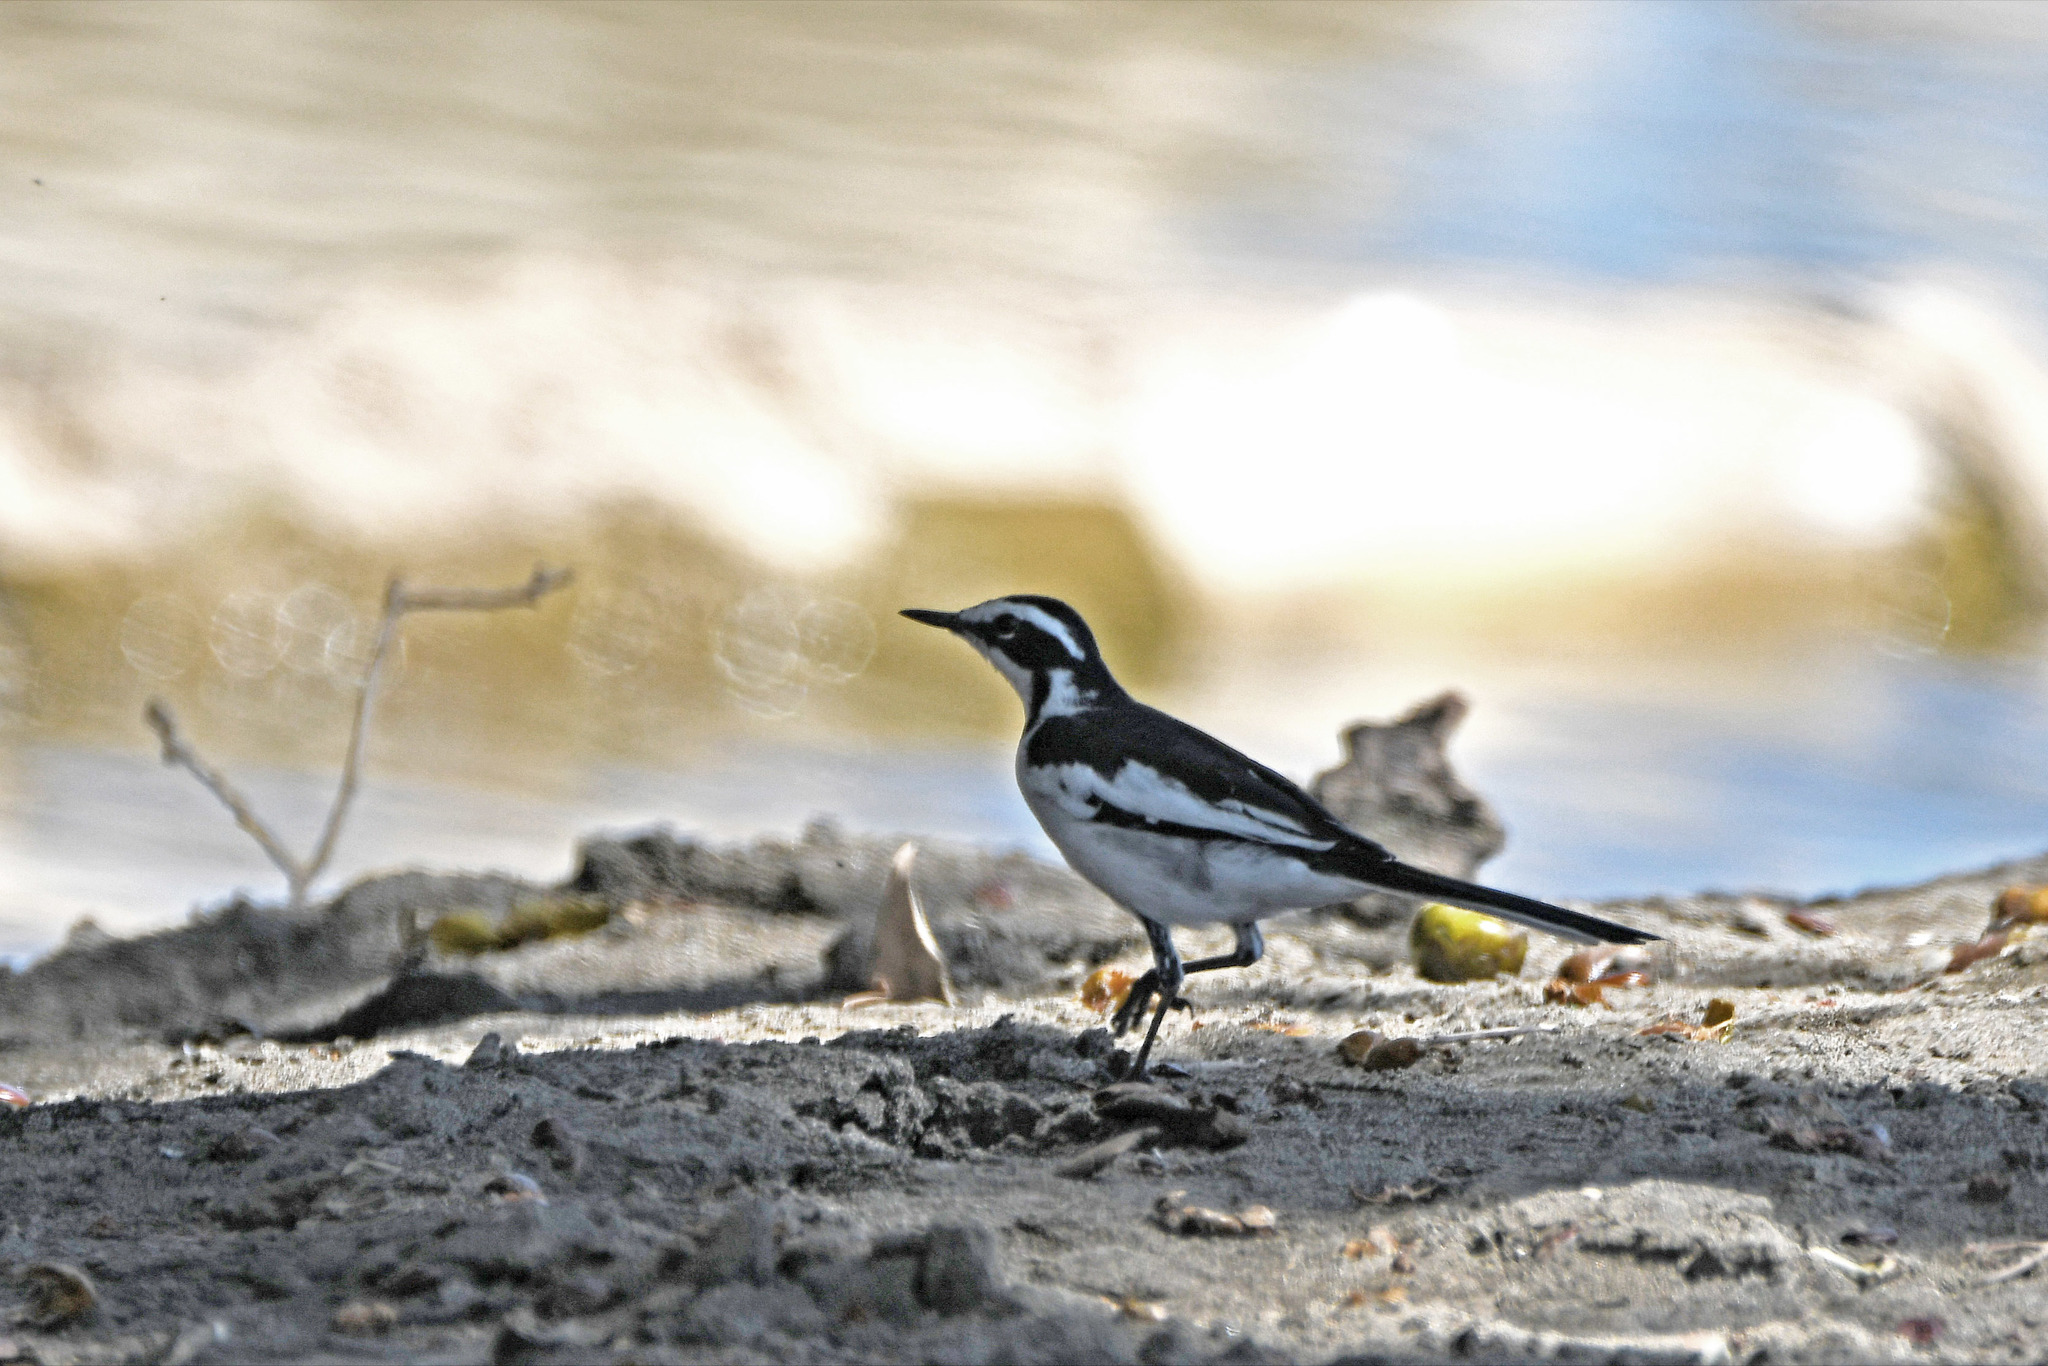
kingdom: Animalia
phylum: Chordata
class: Aves
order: Passeriformes
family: Motacillidae
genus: Motacilla
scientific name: Motacilla aguimp
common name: African pied wagtail
